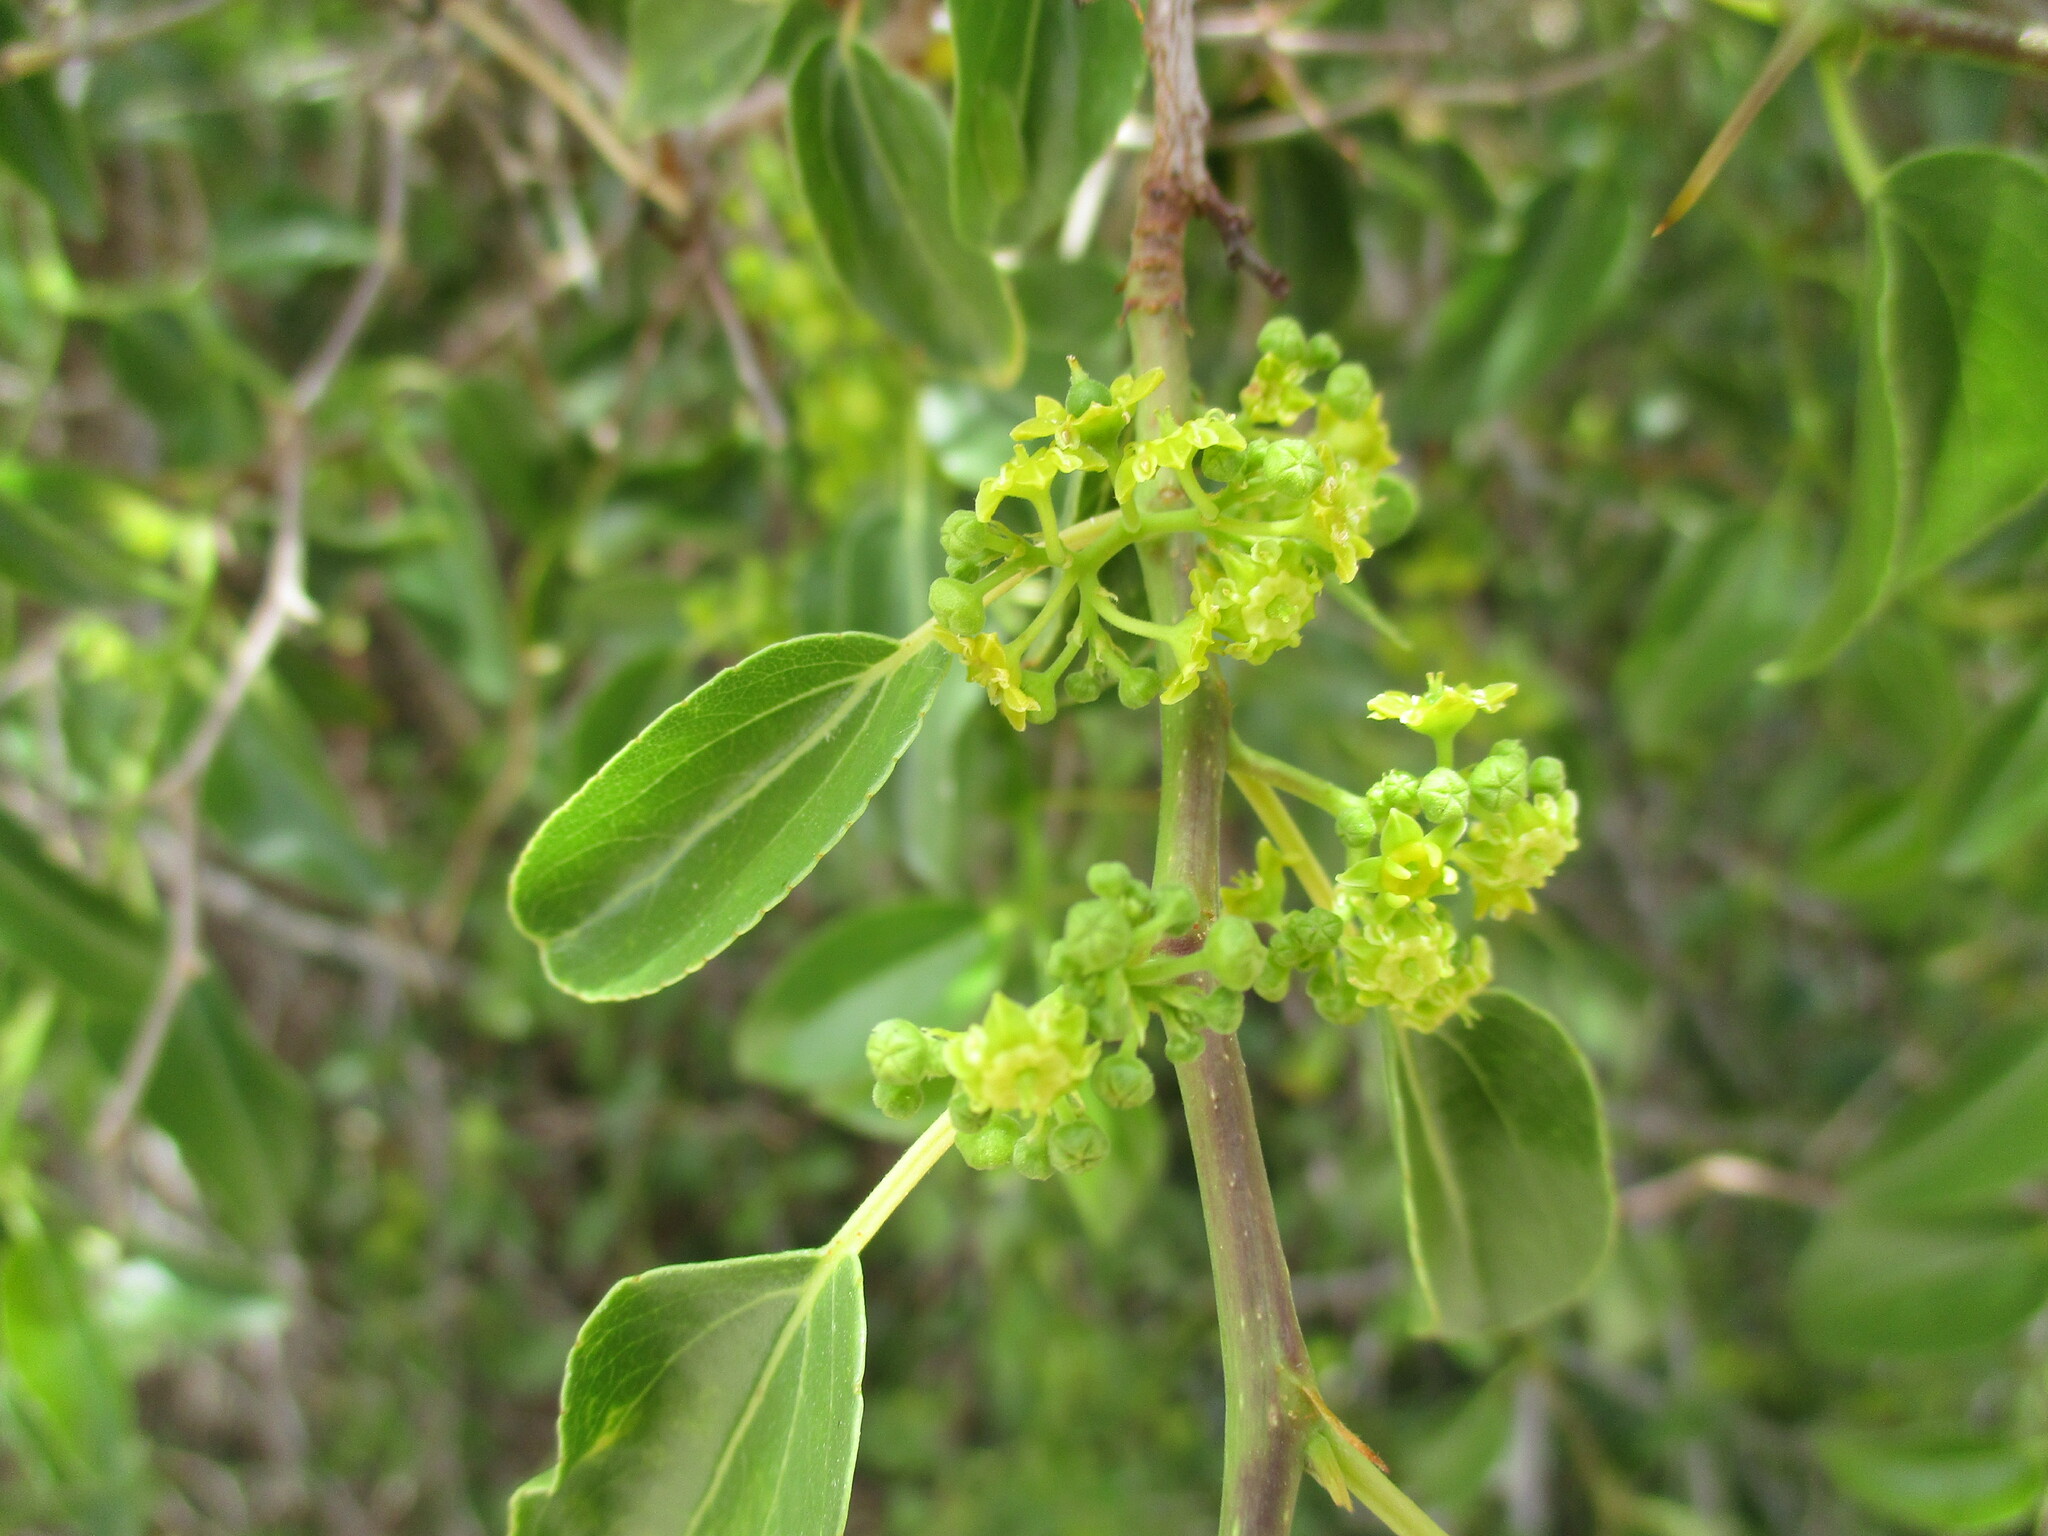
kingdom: Plantae
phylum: Tracheophyta
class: Magnoliopsida
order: Rosales
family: Rhamnaceae
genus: Ziziphus
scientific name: Ziziphus mucronata
